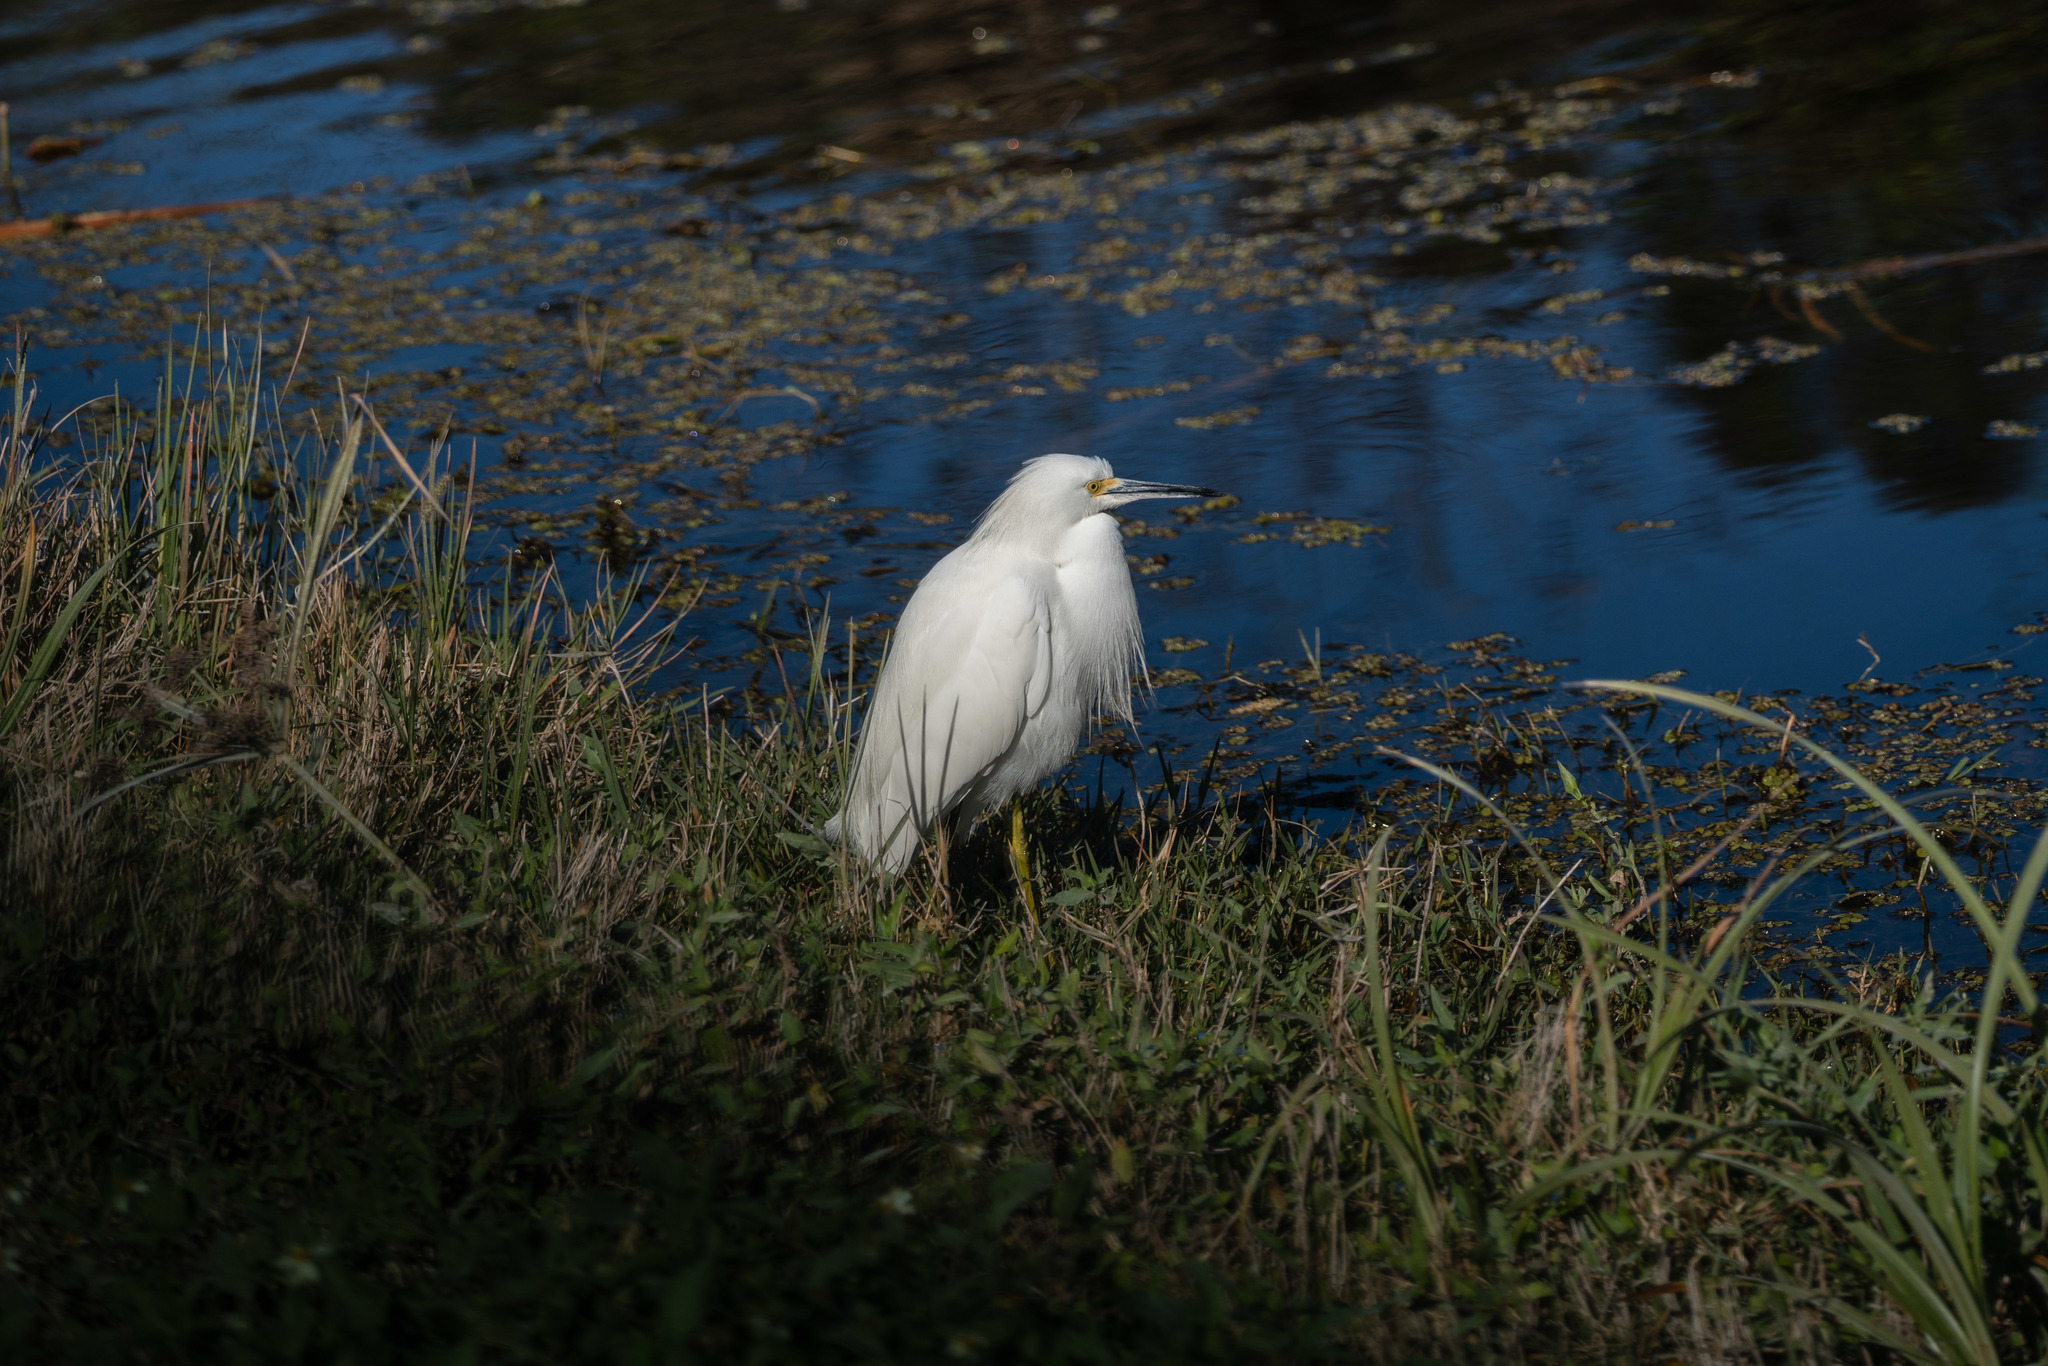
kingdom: Animalia
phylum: Chordata
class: Aves
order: Pelecaniformes
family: Ardeidae
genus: Egretta
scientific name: Egretta thula
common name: Snowy egret
